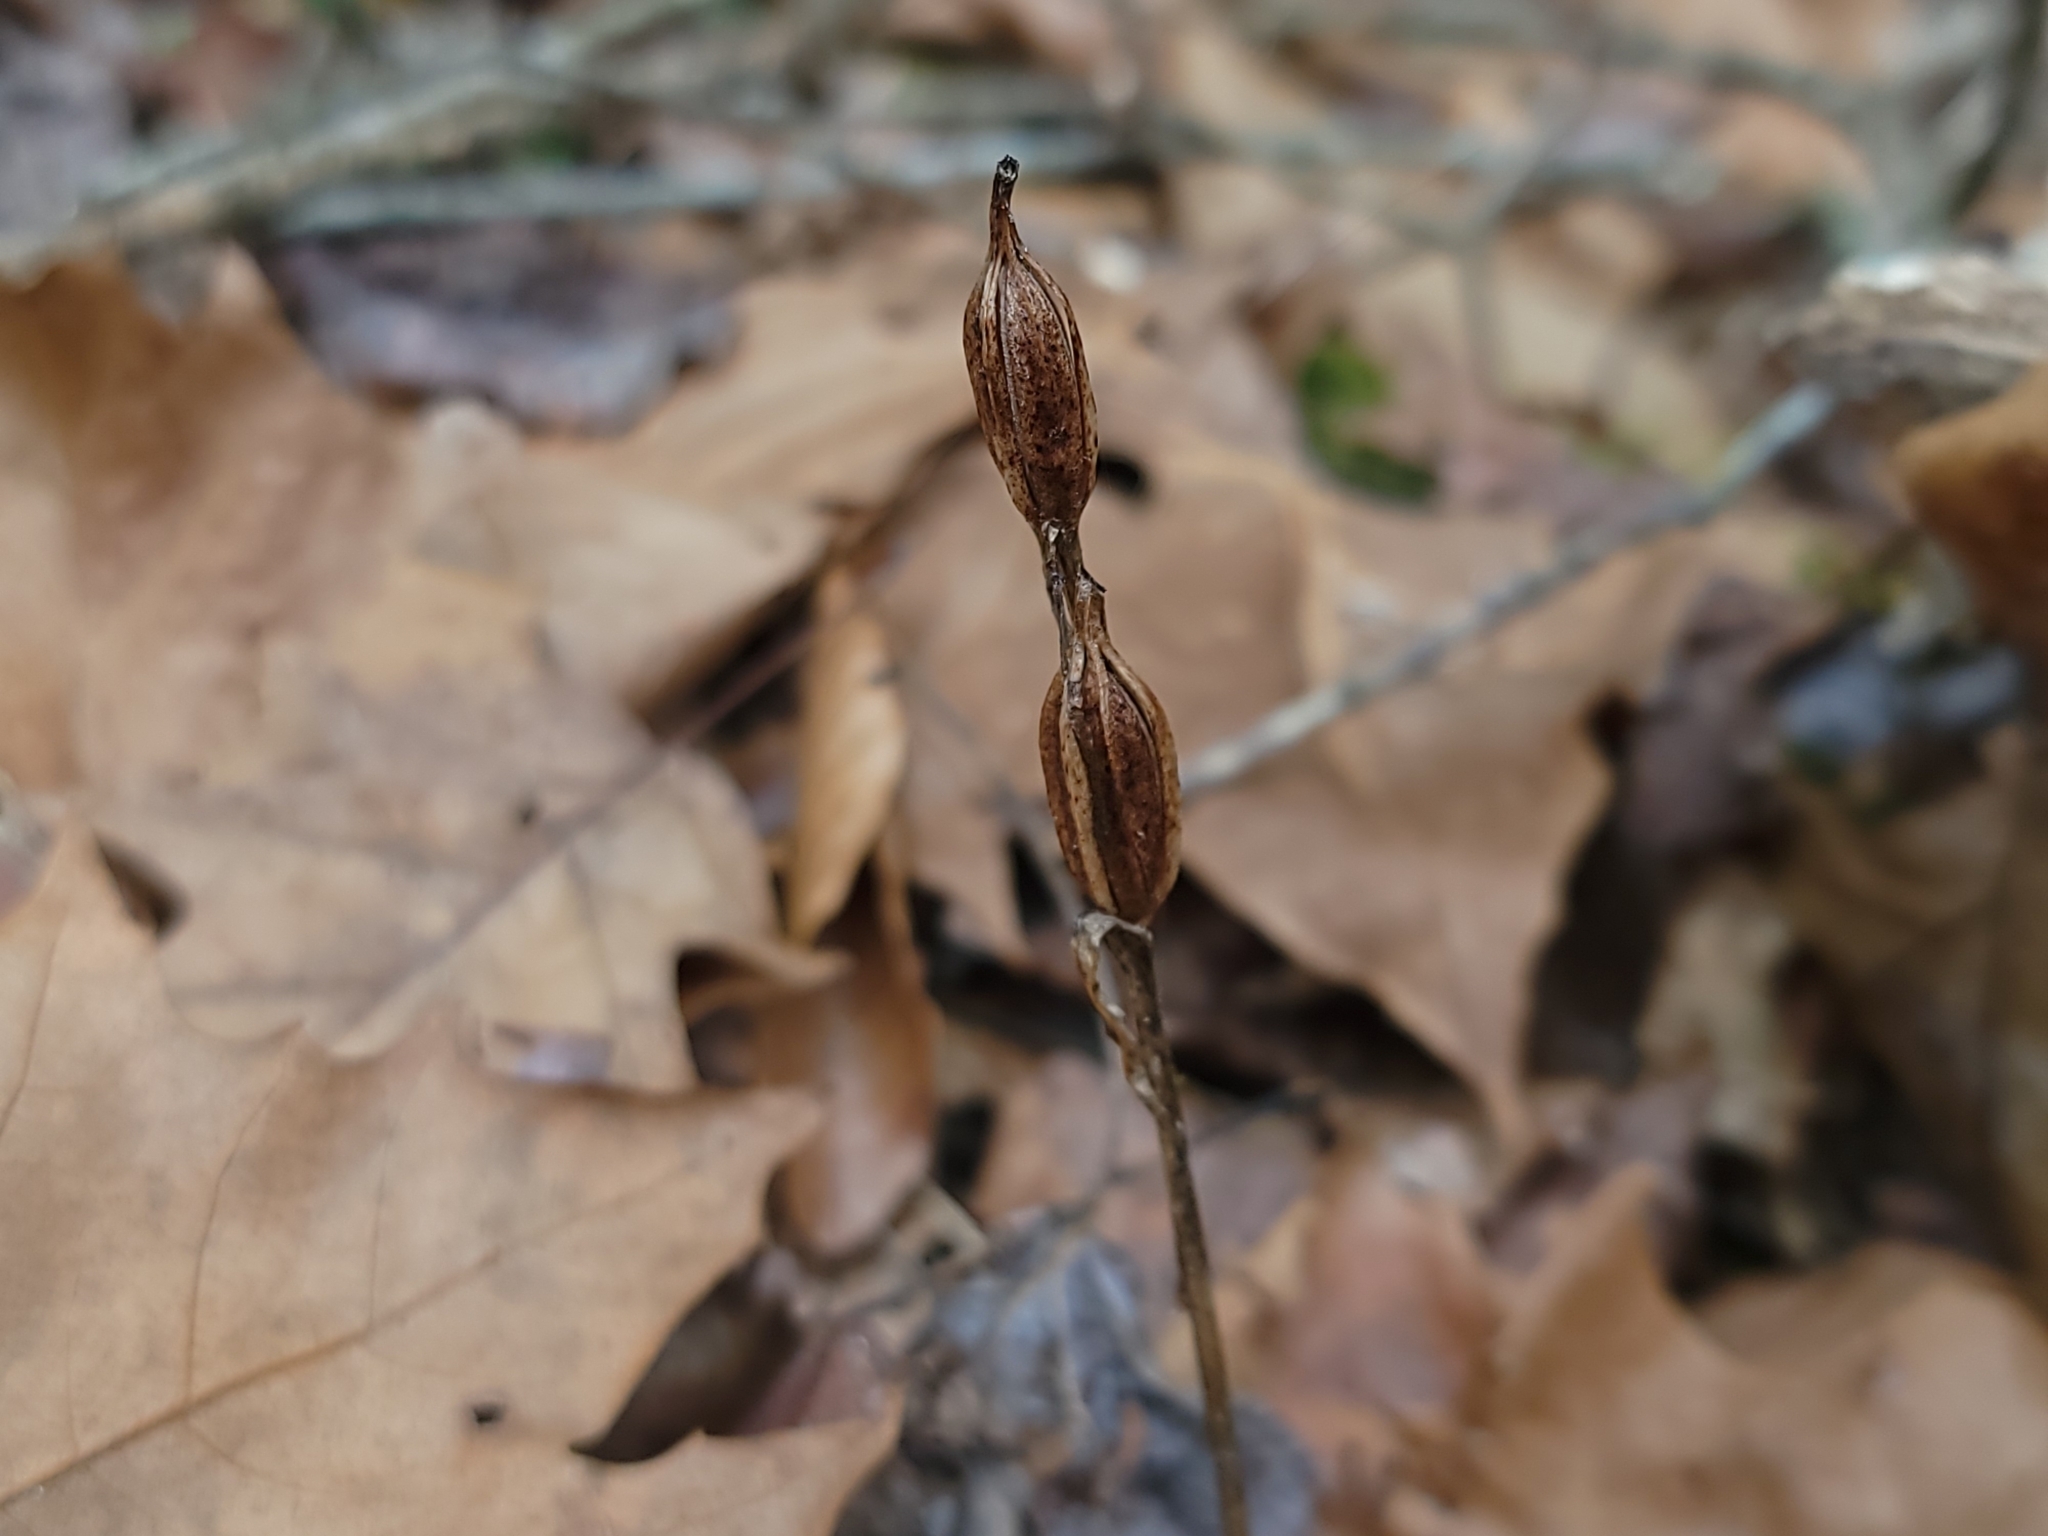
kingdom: Plantae
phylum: Tracheophyta
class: Liliopsida
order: Asparagales
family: Orchidaceae
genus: Aplectrum
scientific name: Aplectrum hyemale
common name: Adam-and-eve
